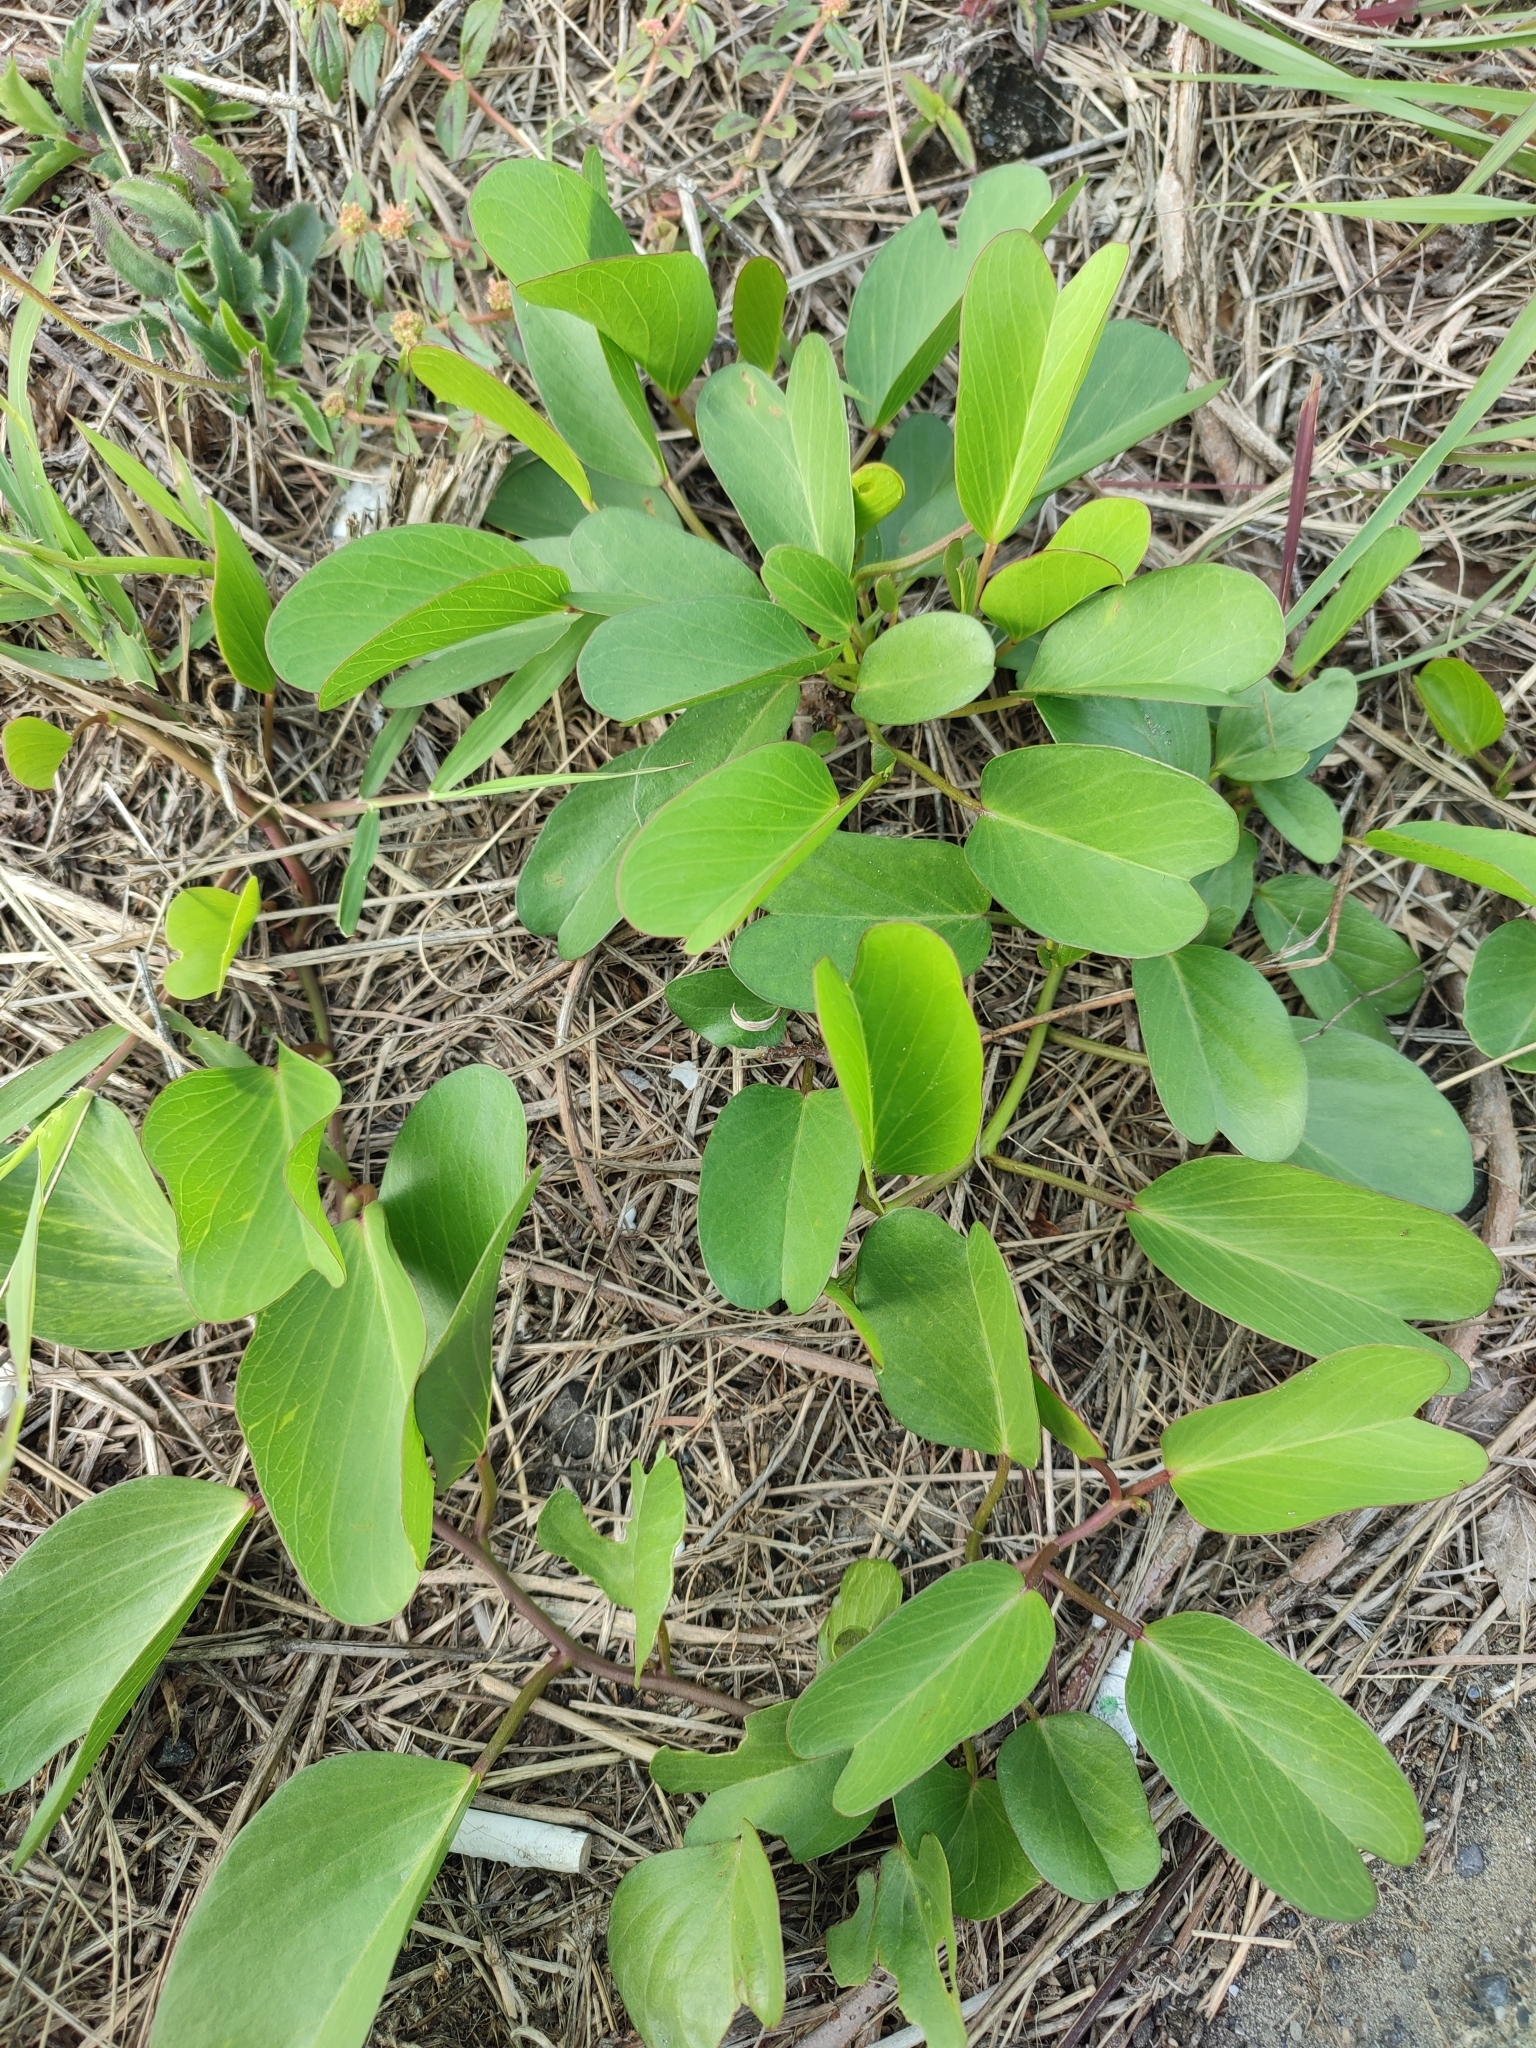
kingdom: Plantae
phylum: Tracheophyta
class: Magnoliopsida
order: Solanales
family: Convolvulaceae
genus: Ipomoea
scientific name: Ipomoea pes-caprae
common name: Beach morning glory
